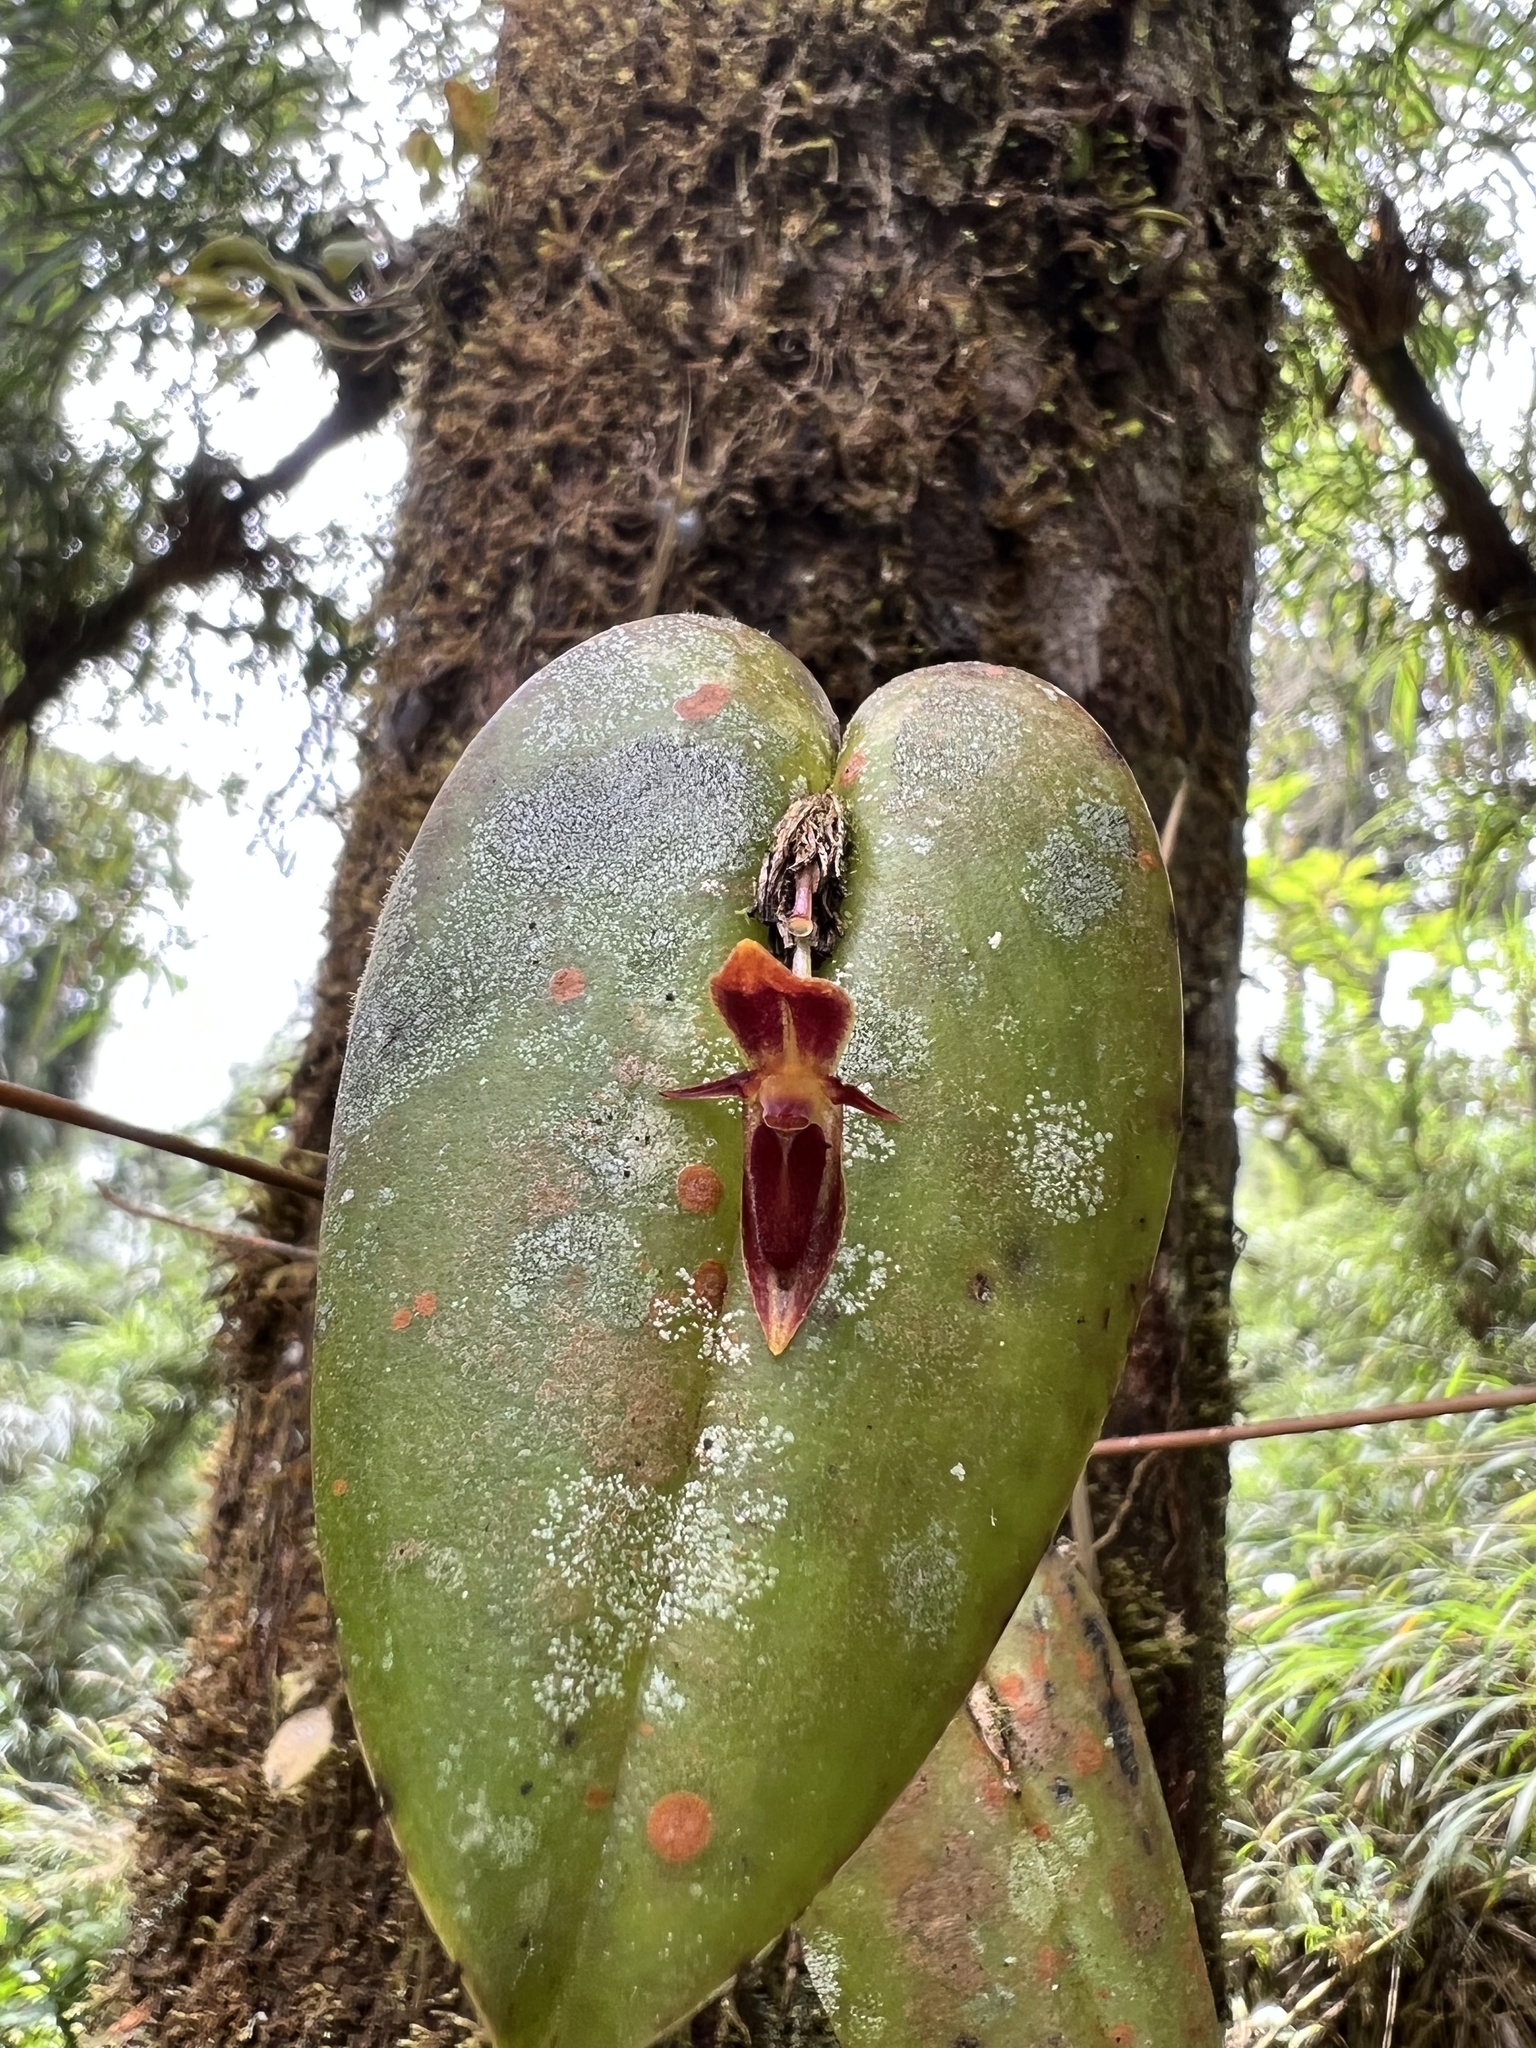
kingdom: Plantae
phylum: Tracheophyta
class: Liliopsida
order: Asparagales
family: Orchidaceae
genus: Pleurothallis
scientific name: Pleurothallis coriacardia
